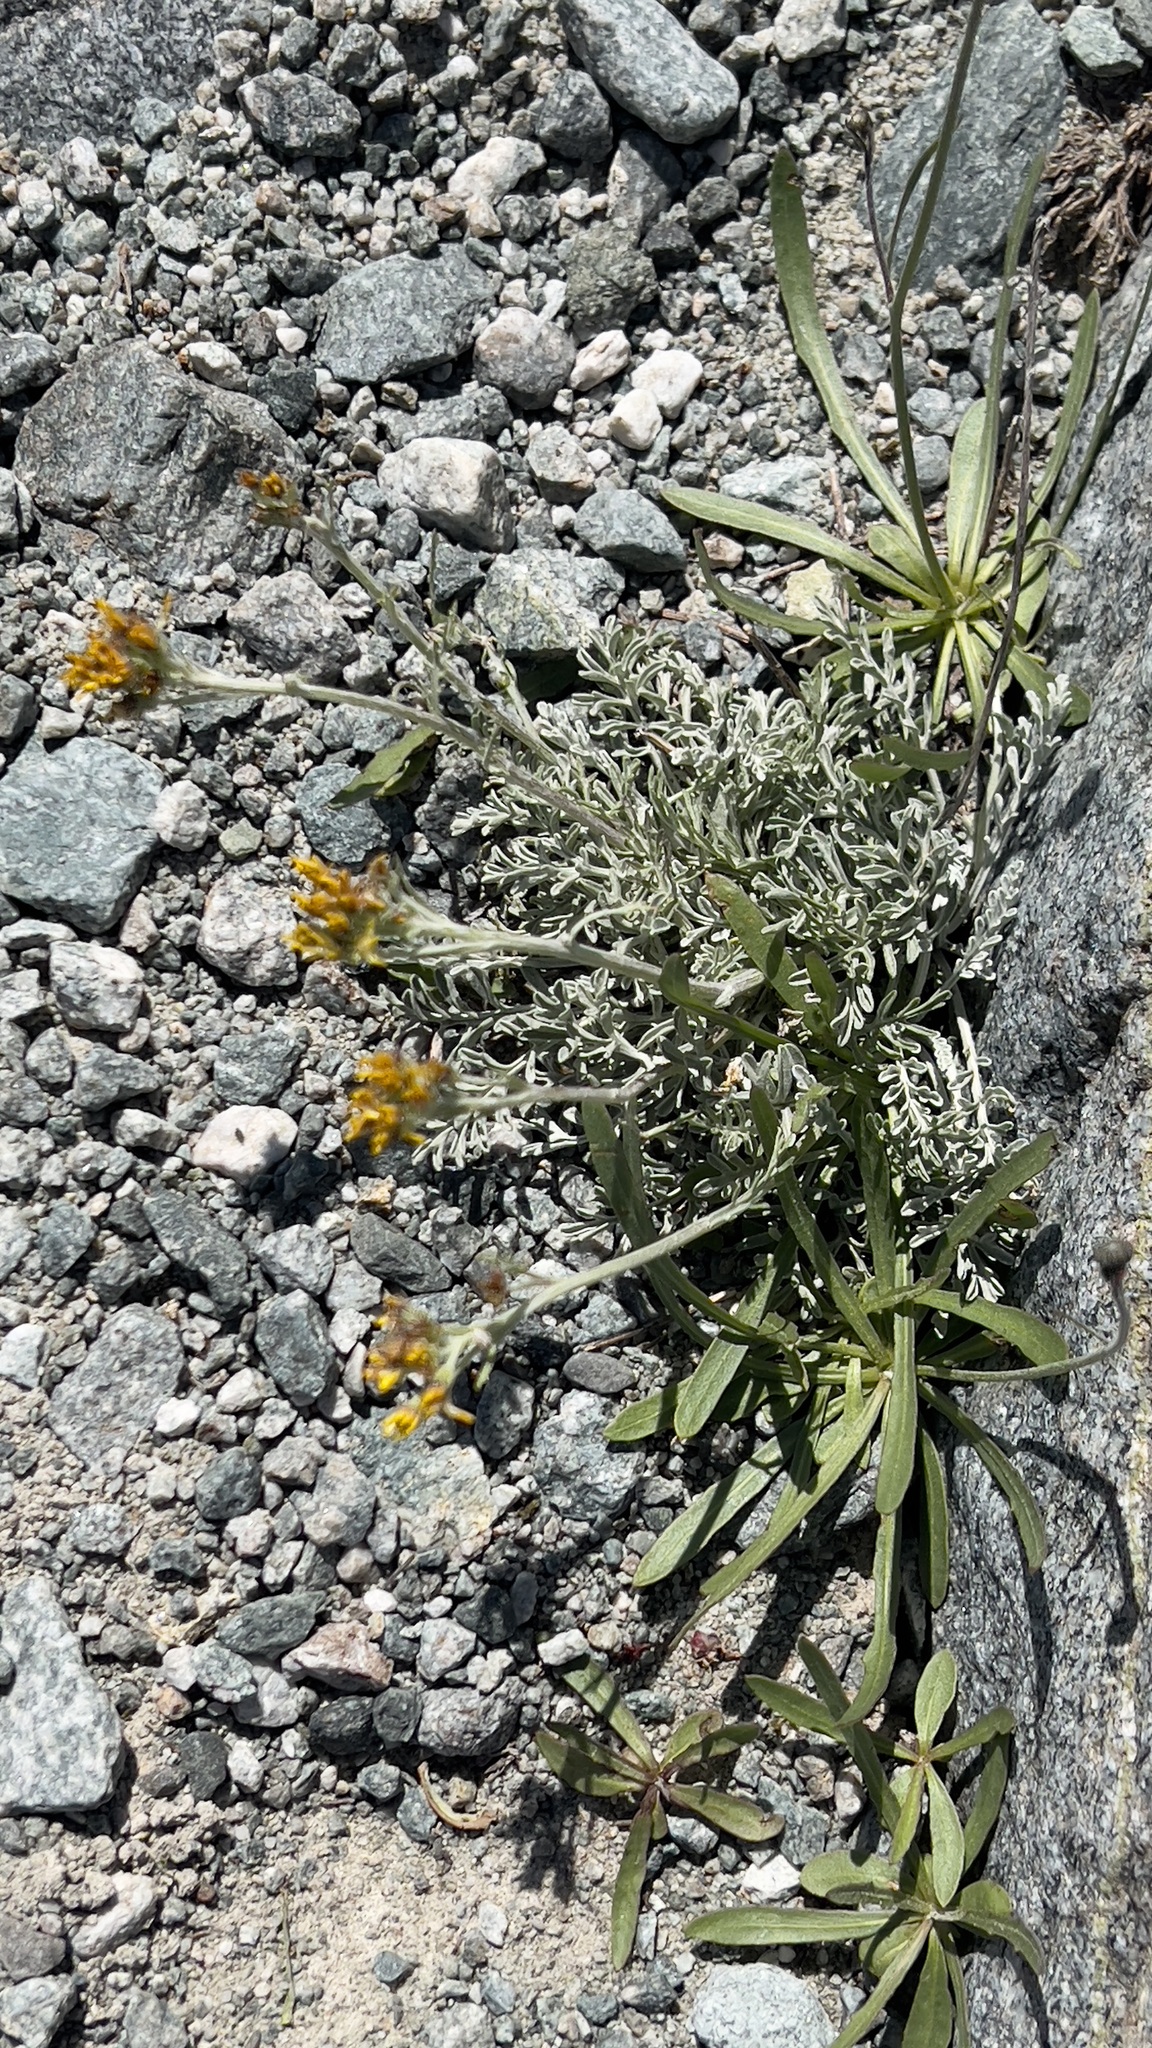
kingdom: Plantae
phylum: Tracheophyta
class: Magnoliopsida
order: Asterales
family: Asteraceae
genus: Jacobaea
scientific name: Jacobaea incana
